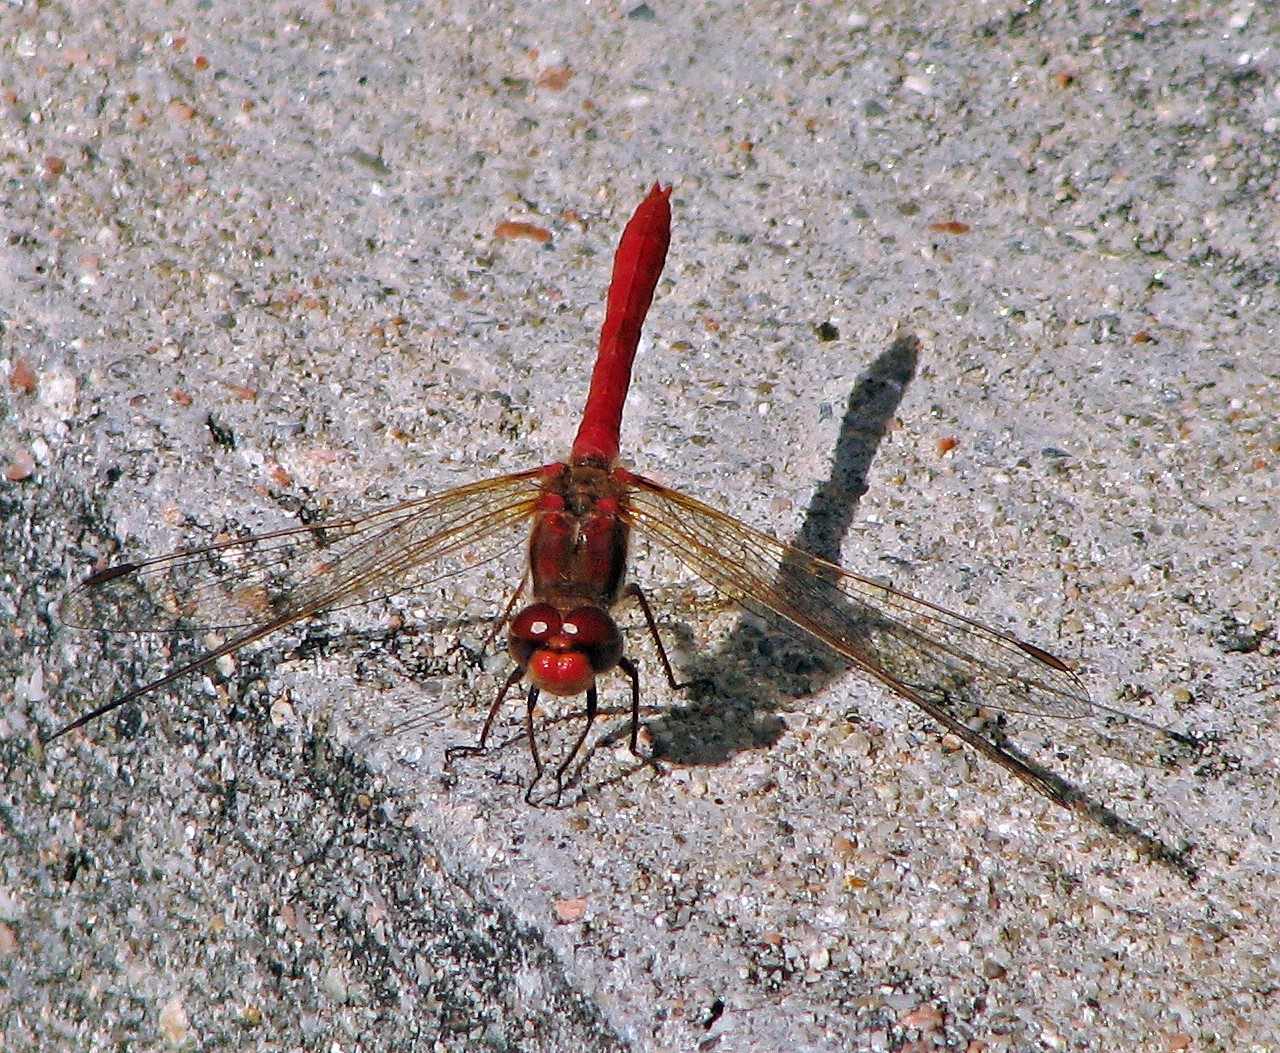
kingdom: Animalia
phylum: Arthropoda
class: Insecta
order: Odonata
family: Libellulidae
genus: Sympetrum
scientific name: Sympetrum gilvum
